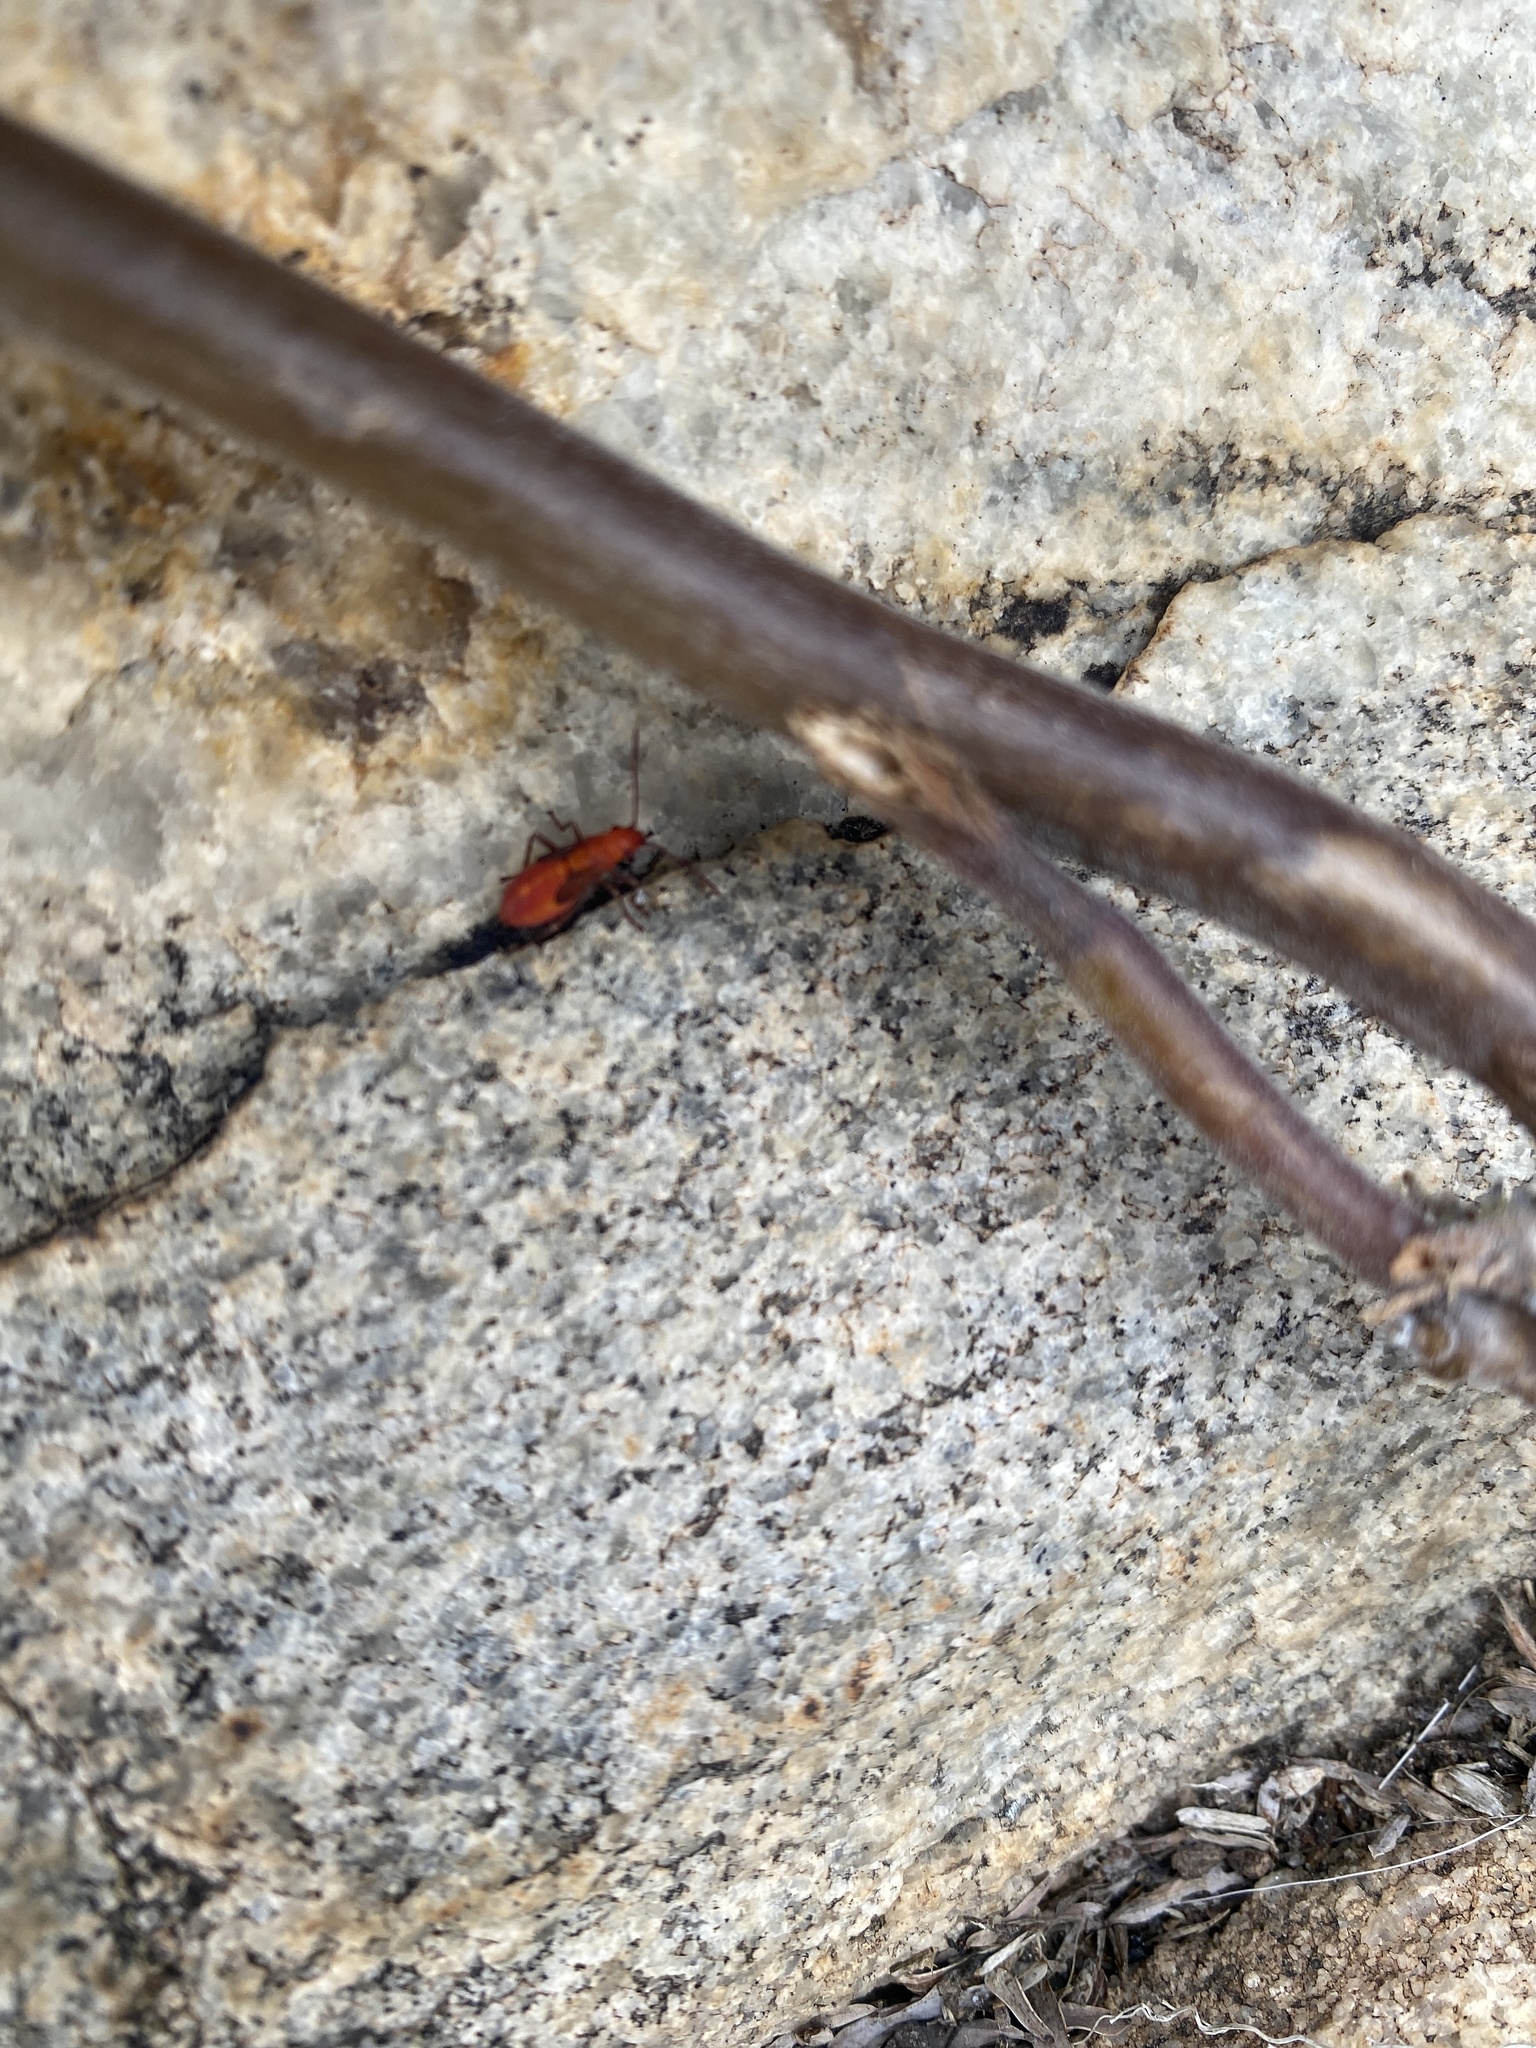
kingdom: Animalia
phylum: Arthropoda
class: Insecta
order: Hemiptera
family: Rhopalidae
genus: Boisea
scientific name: Boisea fulcrata
